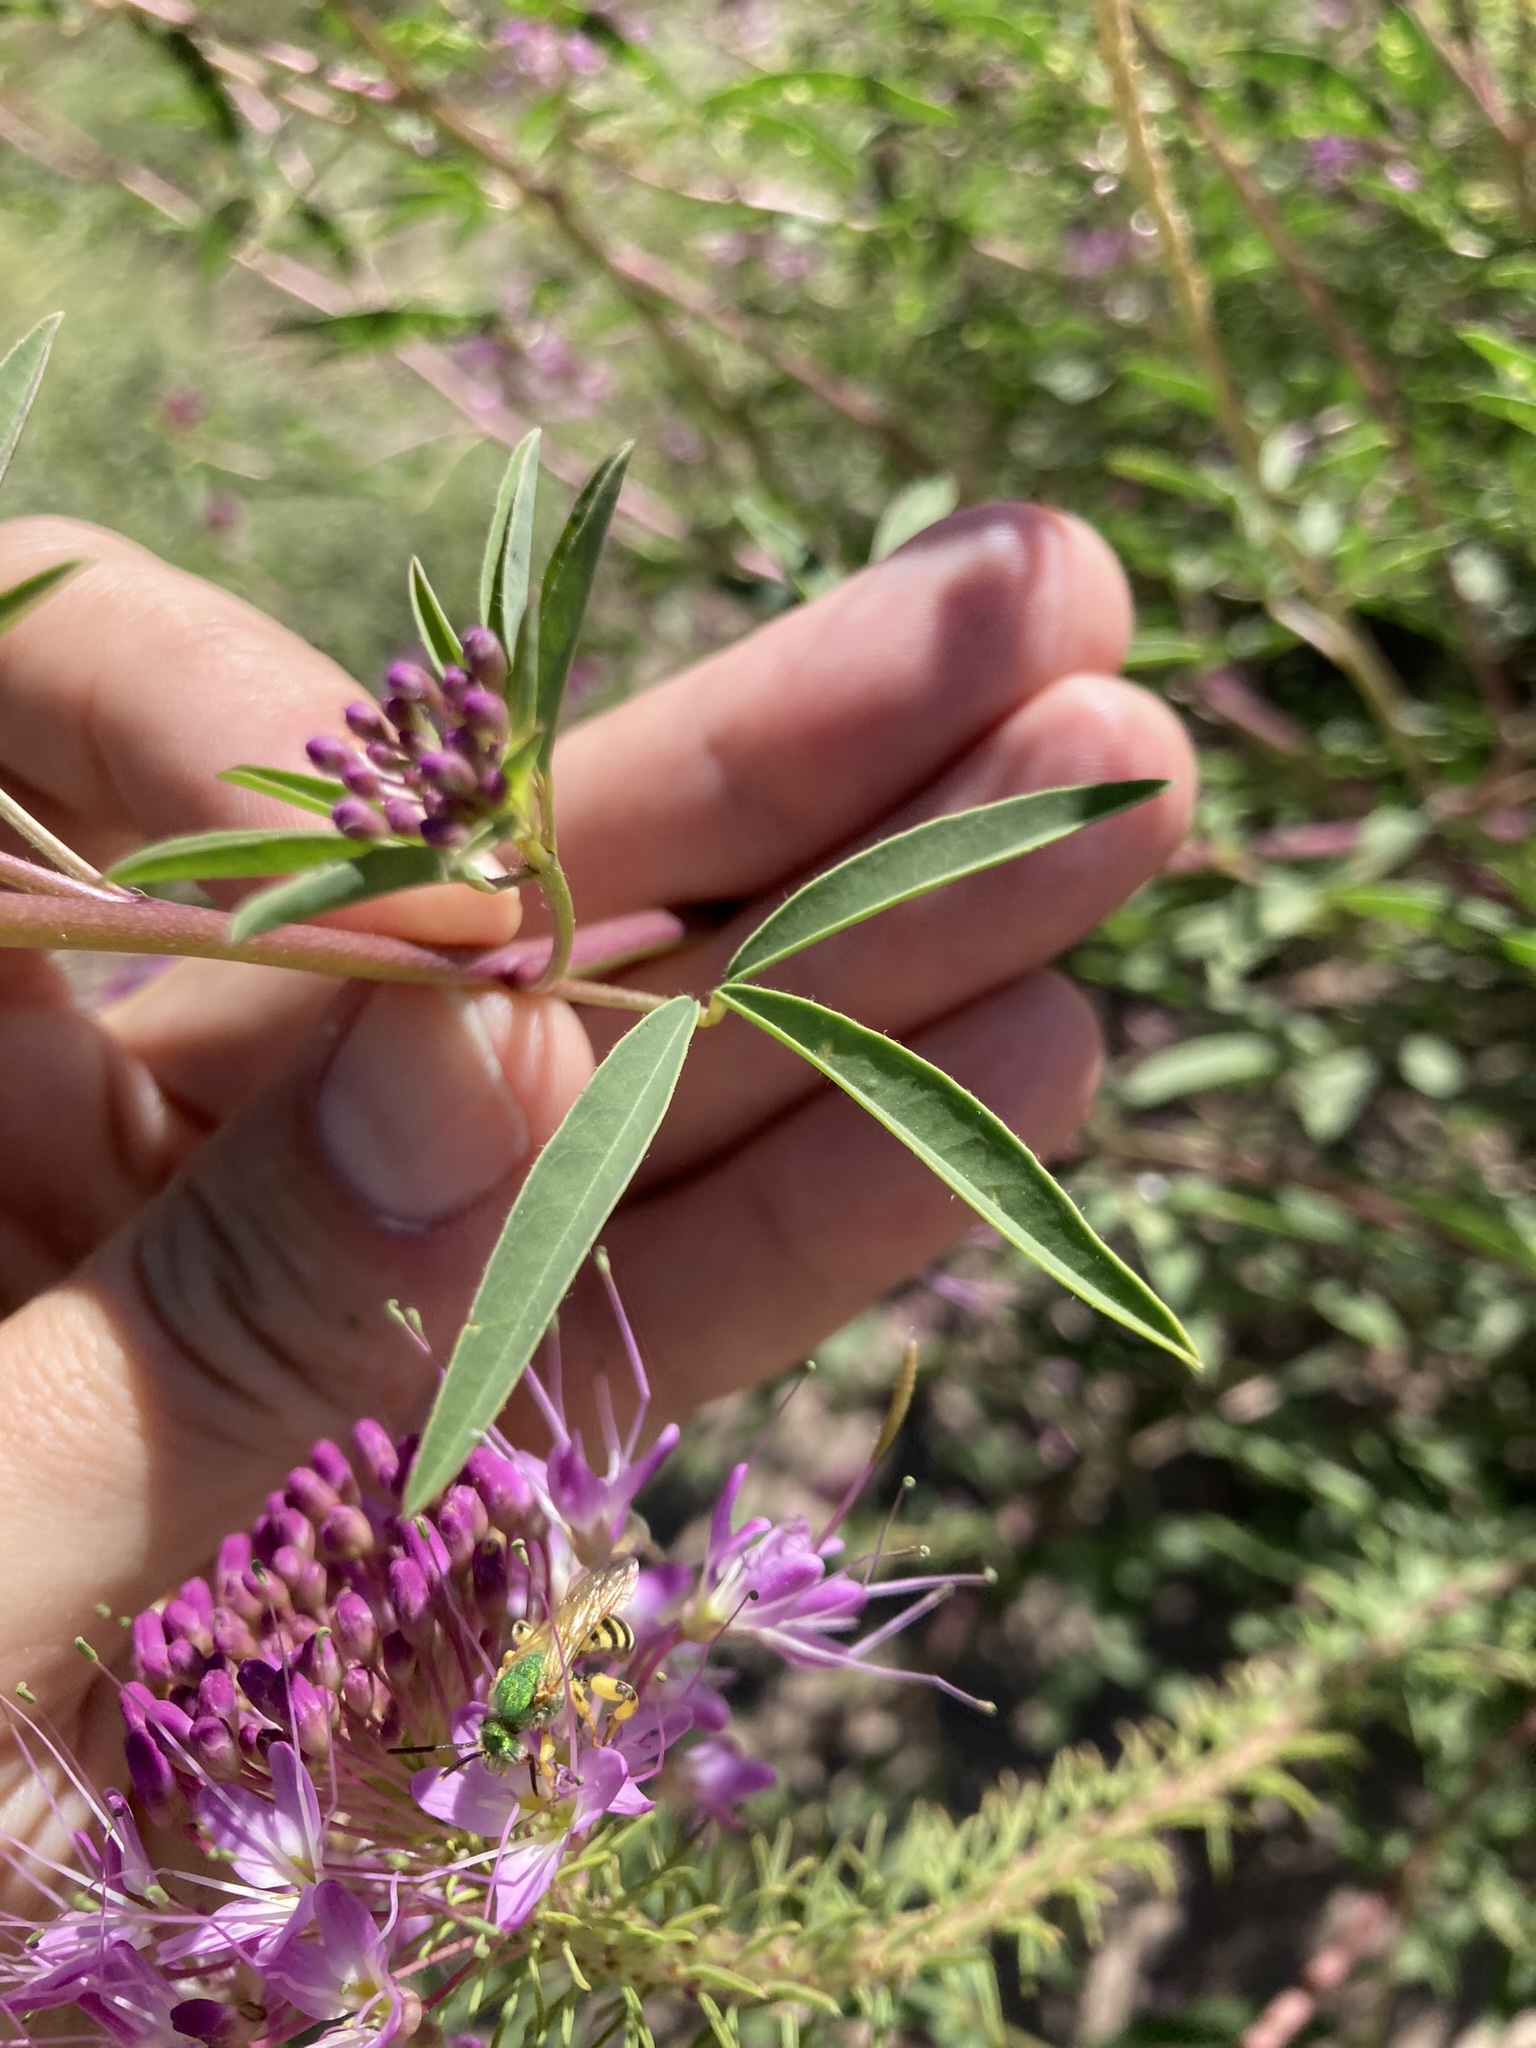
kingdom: Plantae
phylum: Tracheophyta
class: Magnoliopsida
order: Brassicales
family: Cleomaceae
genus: Cleomella
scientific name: Cleomella serrulata
